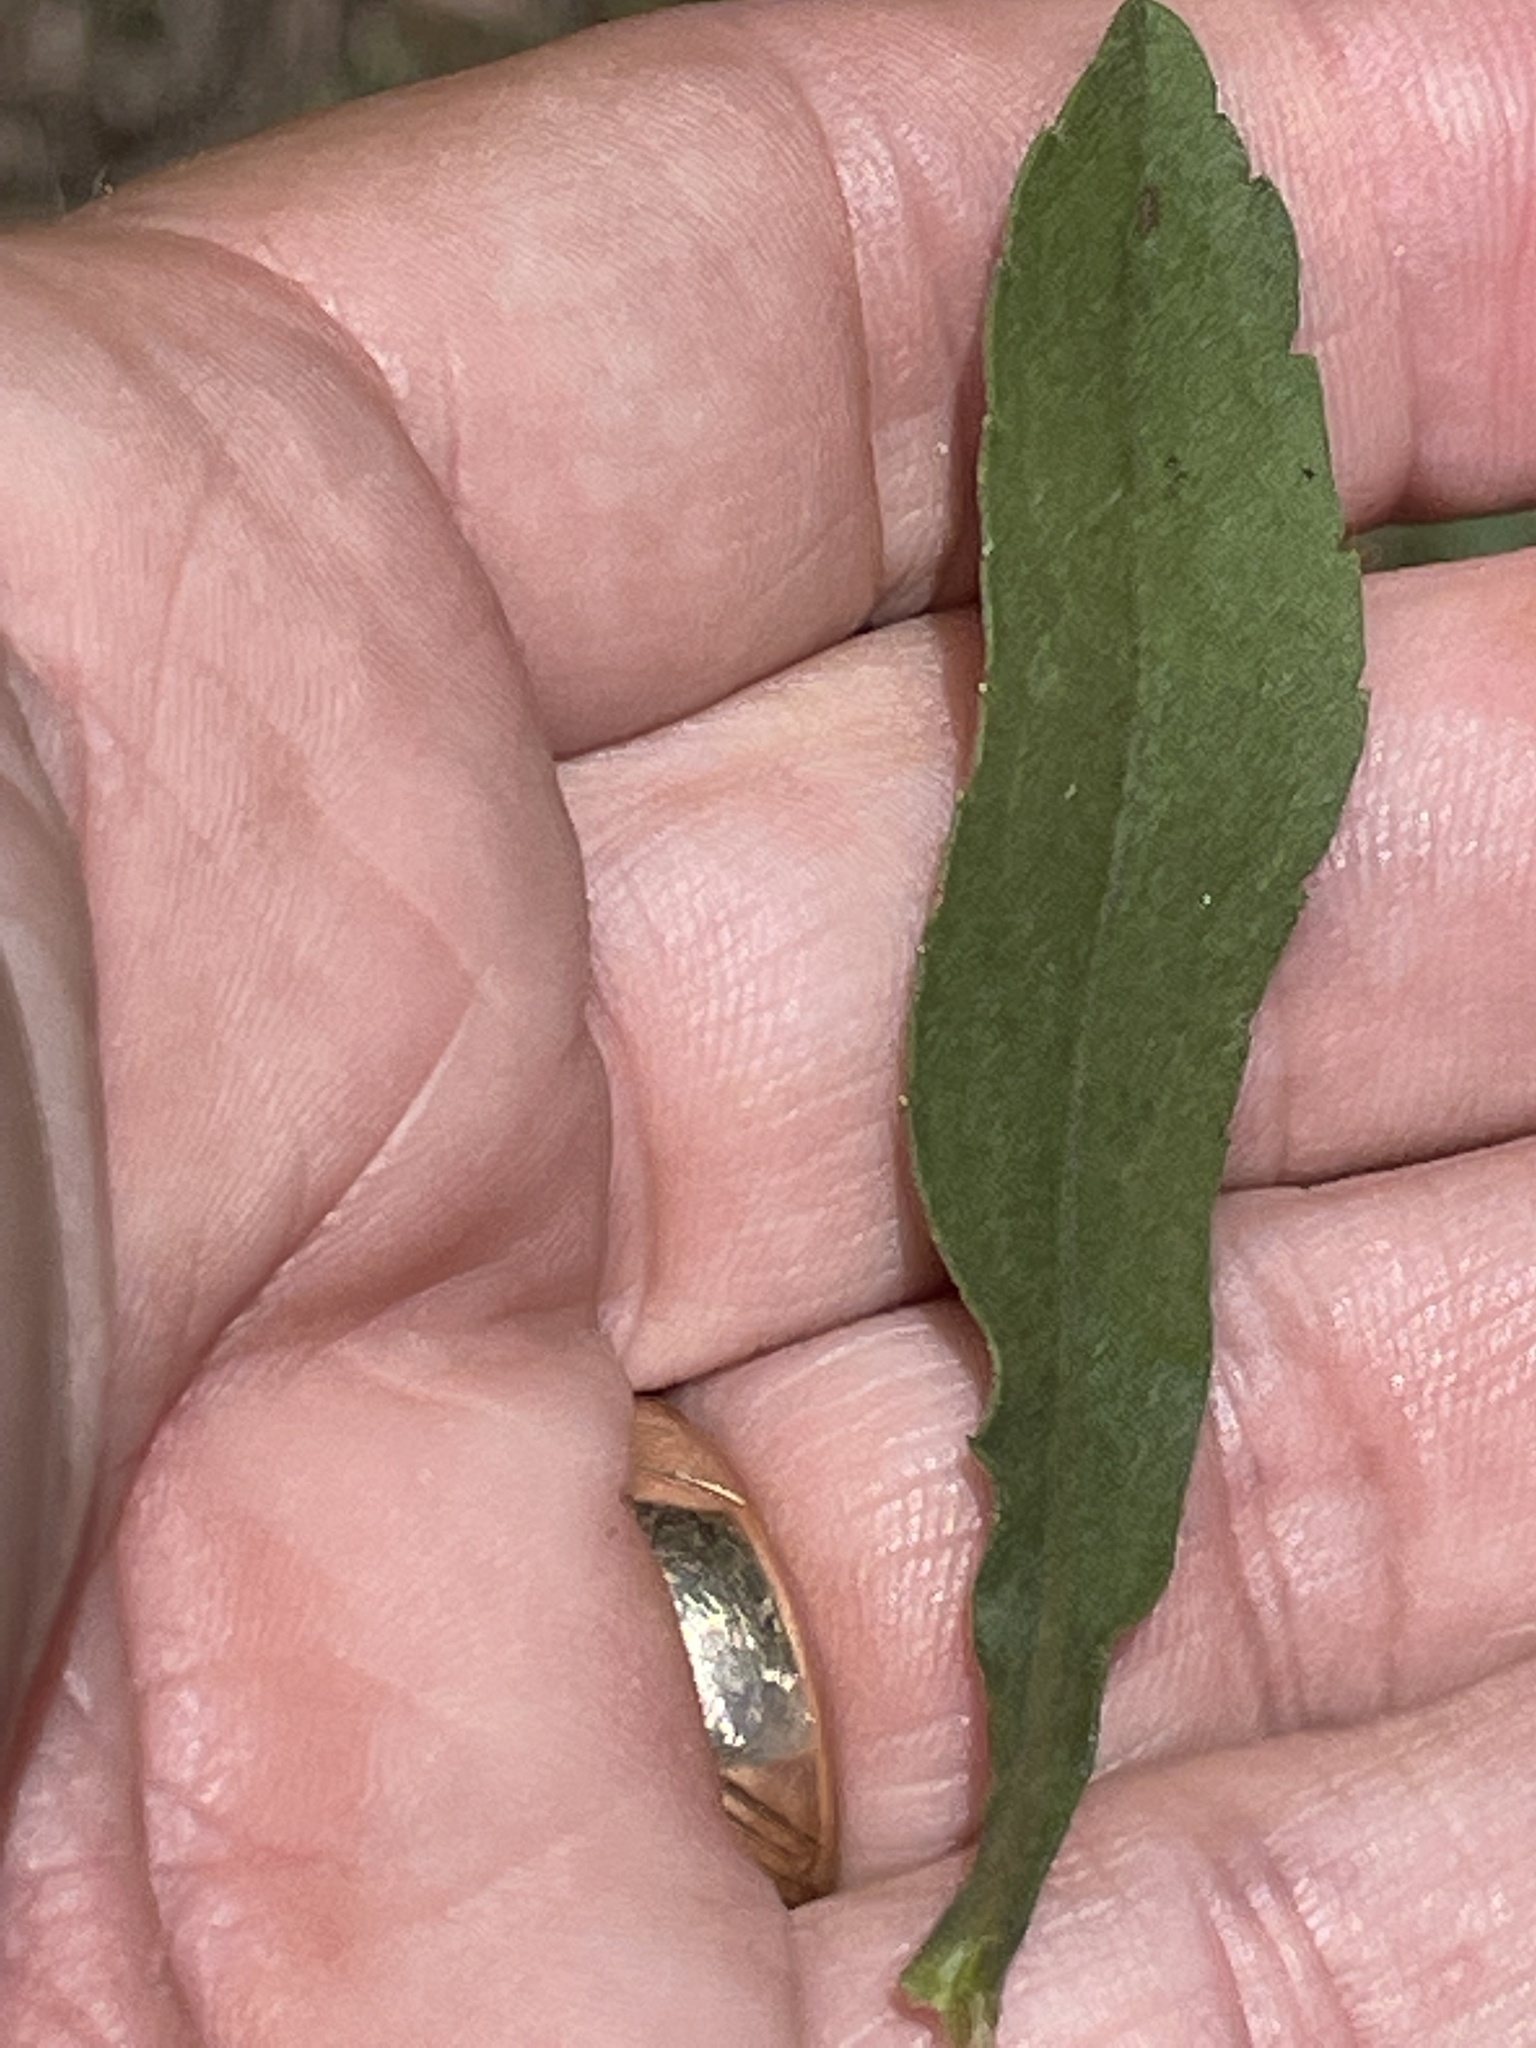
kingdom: Plantae
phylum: Tracheophyta
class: Magnoliopsida
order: Asterales
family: Asteraceae
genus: Solidago
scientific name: Solidago nemoralis
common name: Grey goldenrod
